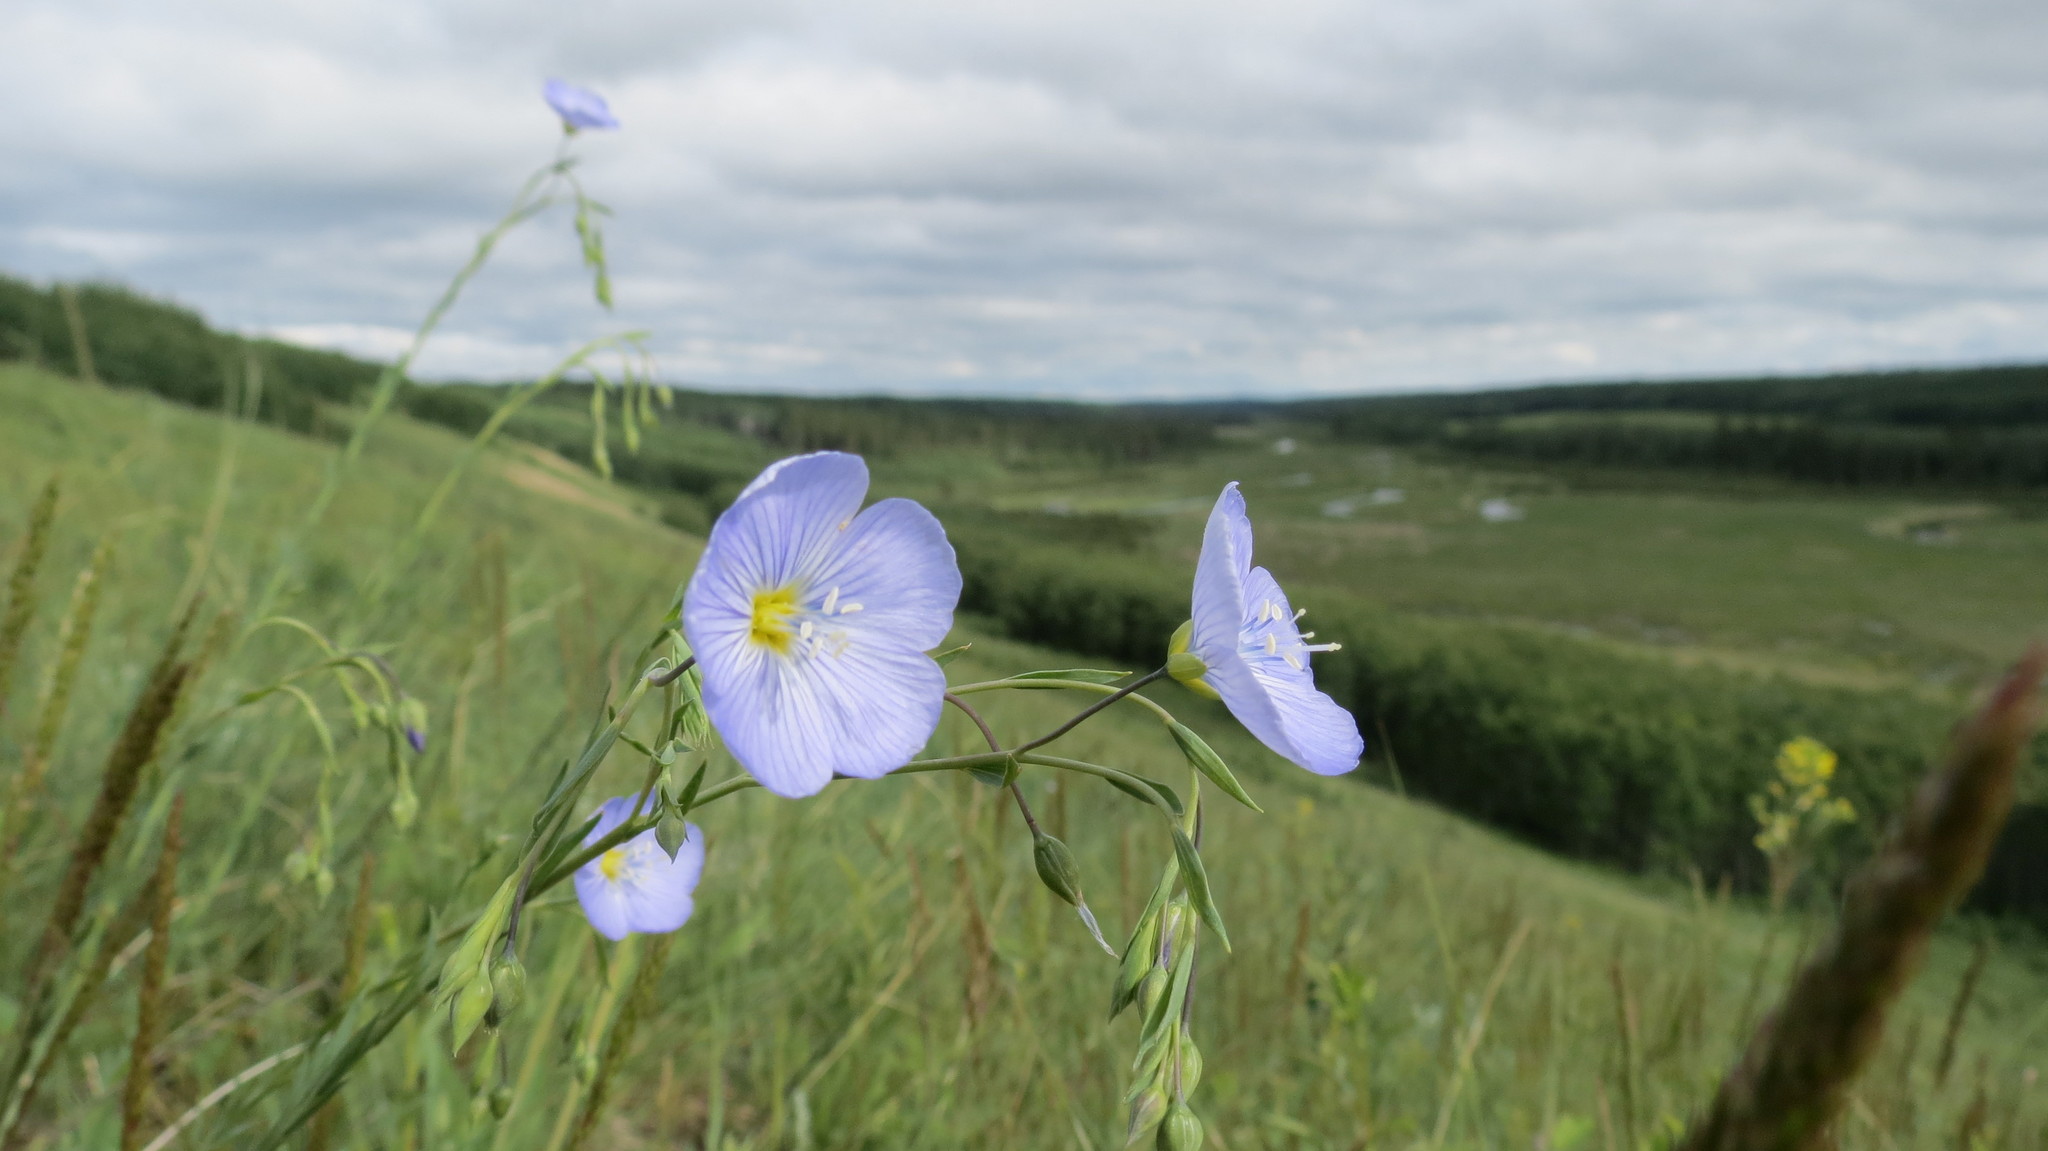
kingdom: Plantae
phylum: Tracheophyta
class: Magnoliopsida
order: Malpighiales
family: Linaceae
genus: Linum
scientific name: Linum usitatissimum
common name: Flax
